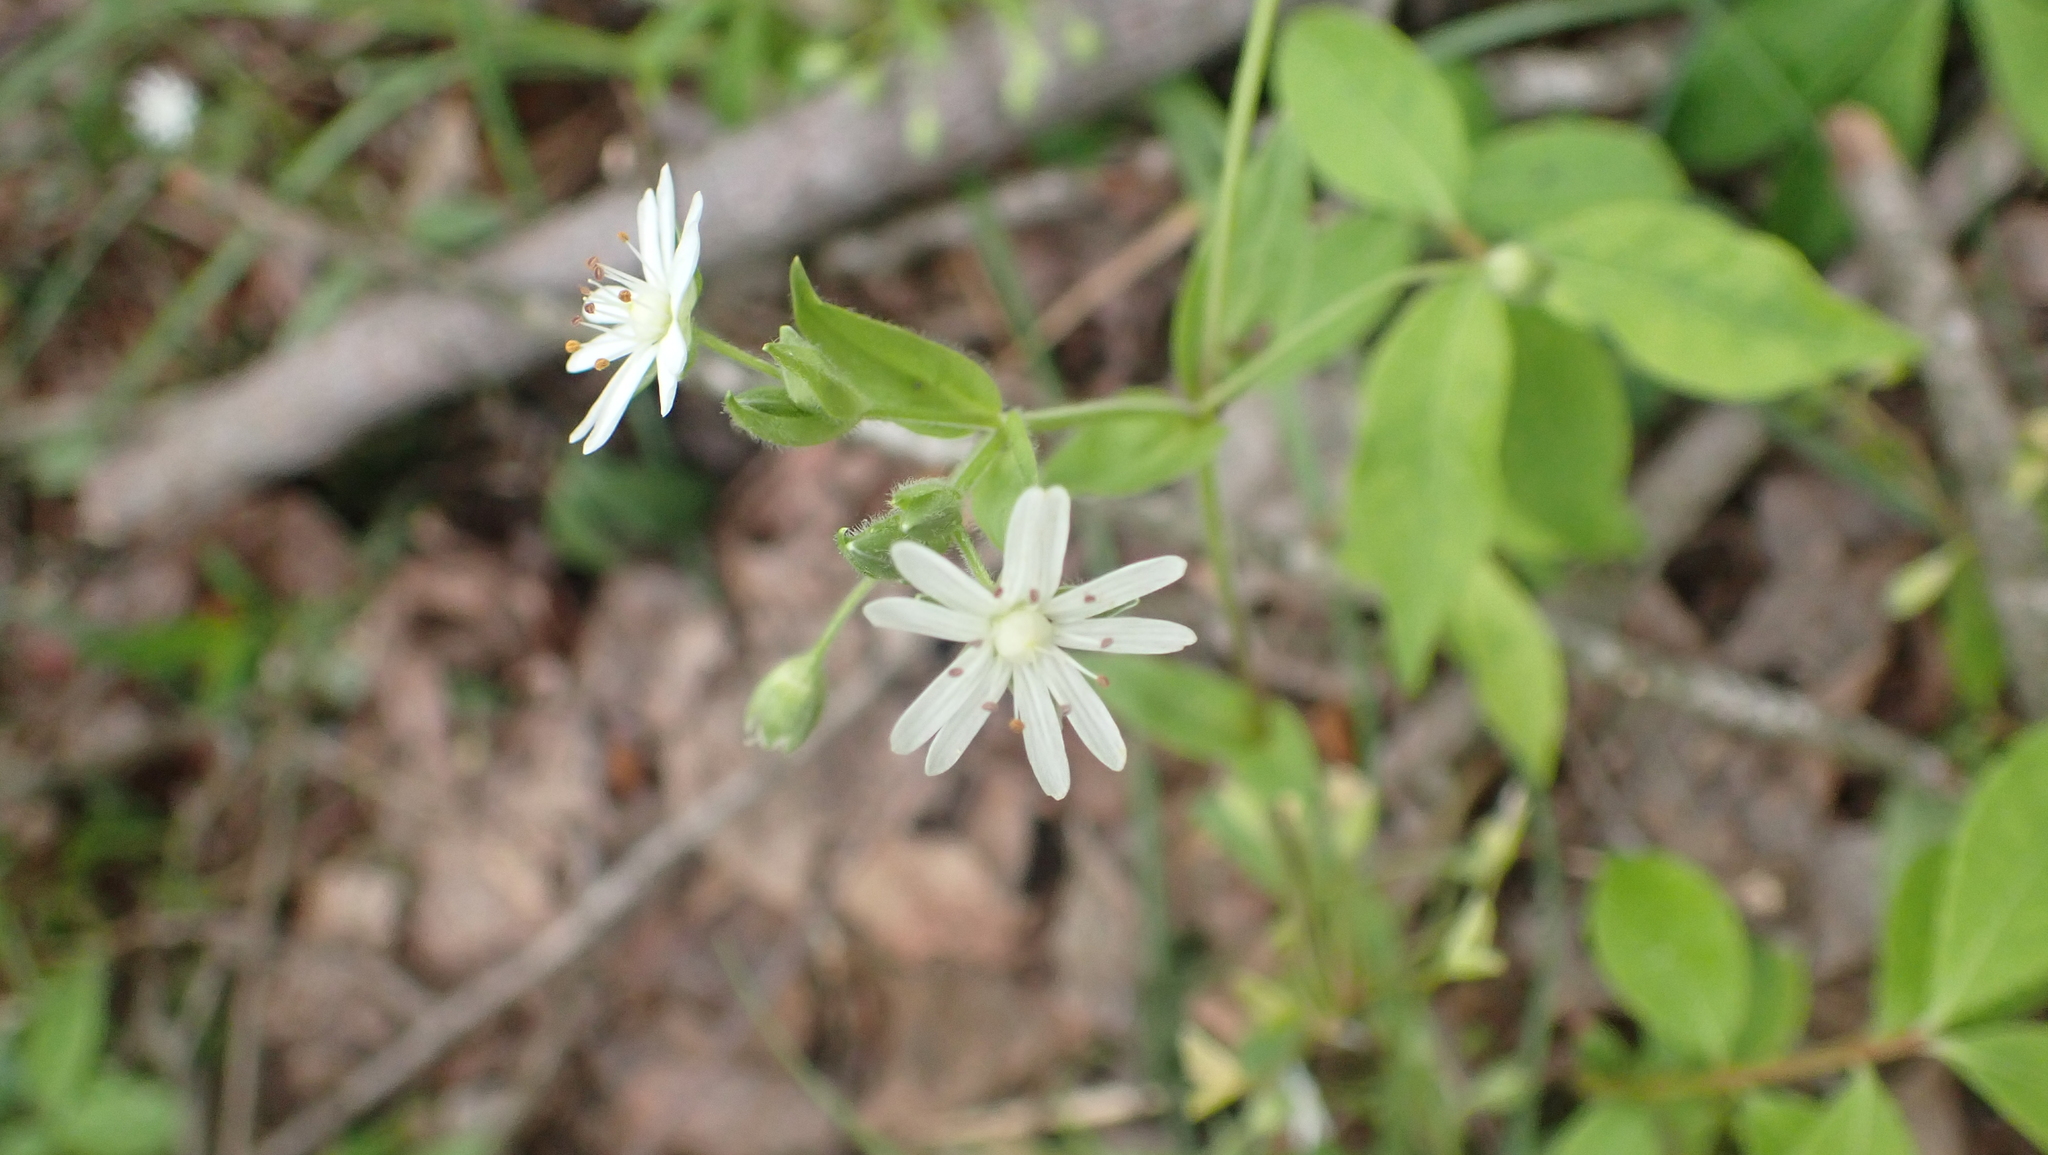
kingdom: Plantae
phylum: Tracheophyta
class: Magnoliopsida
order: Caryophyllales
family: Caryophyllaceae
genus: Stellaria
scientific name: Stellaria pubera
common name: Star chickweed
